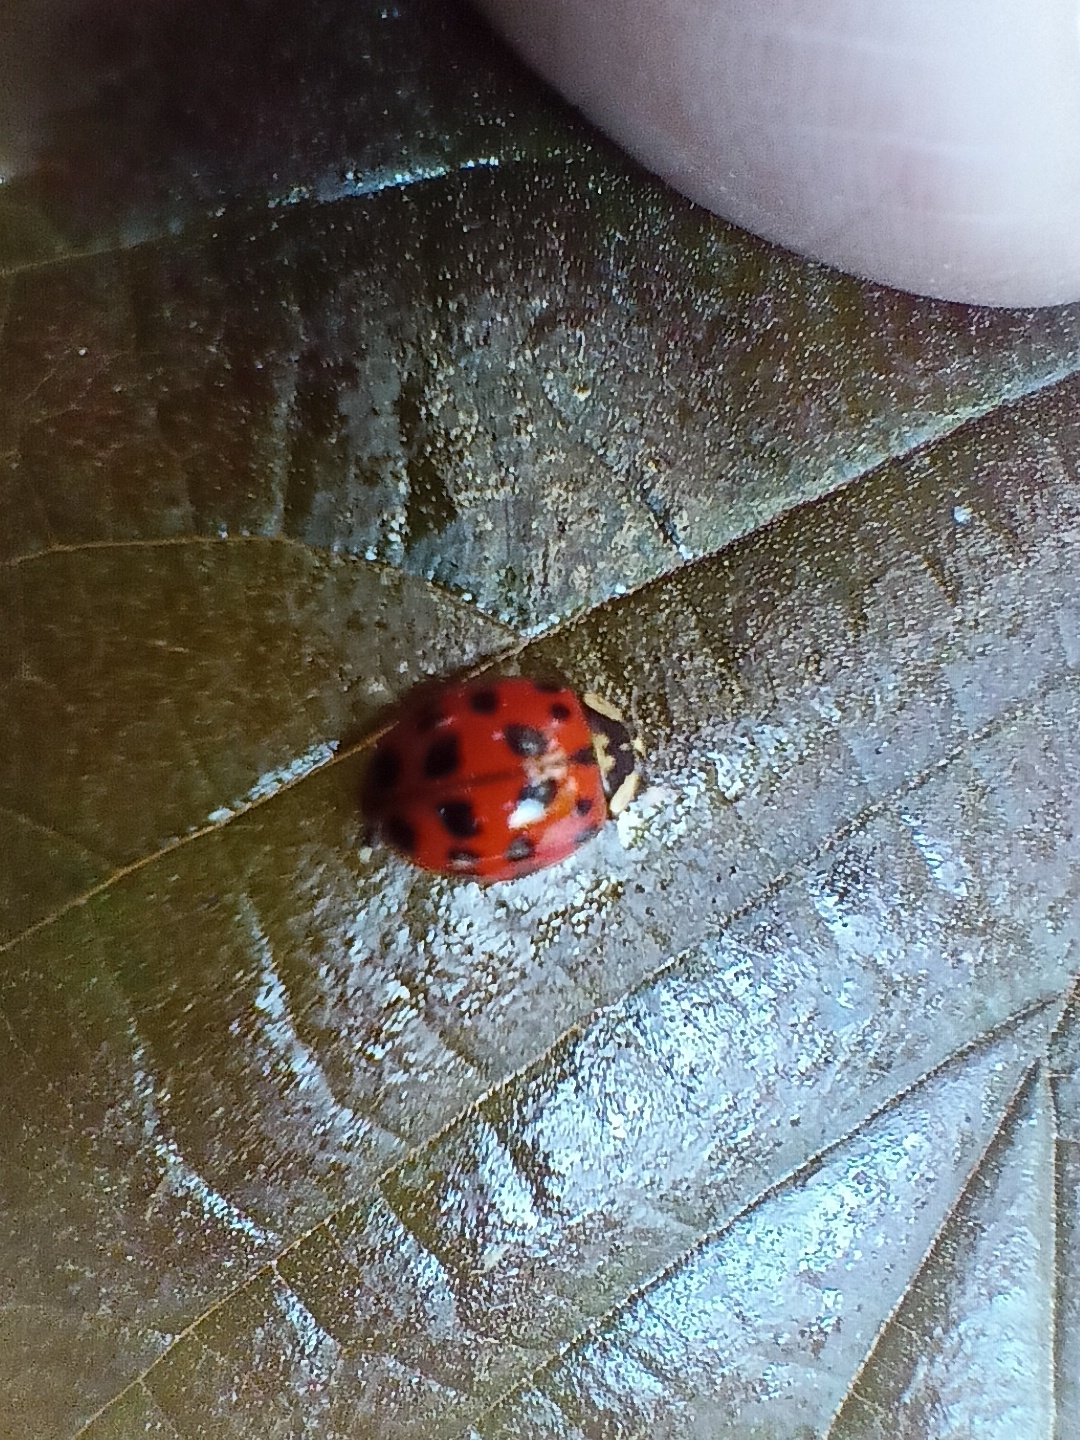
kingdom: Animalia
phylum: Arthropoda
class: Insecta
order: Coleoptera
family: Coccinellidae
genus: Harmonia
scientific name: Harmonia axyridis
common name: Harlequin ladybird
